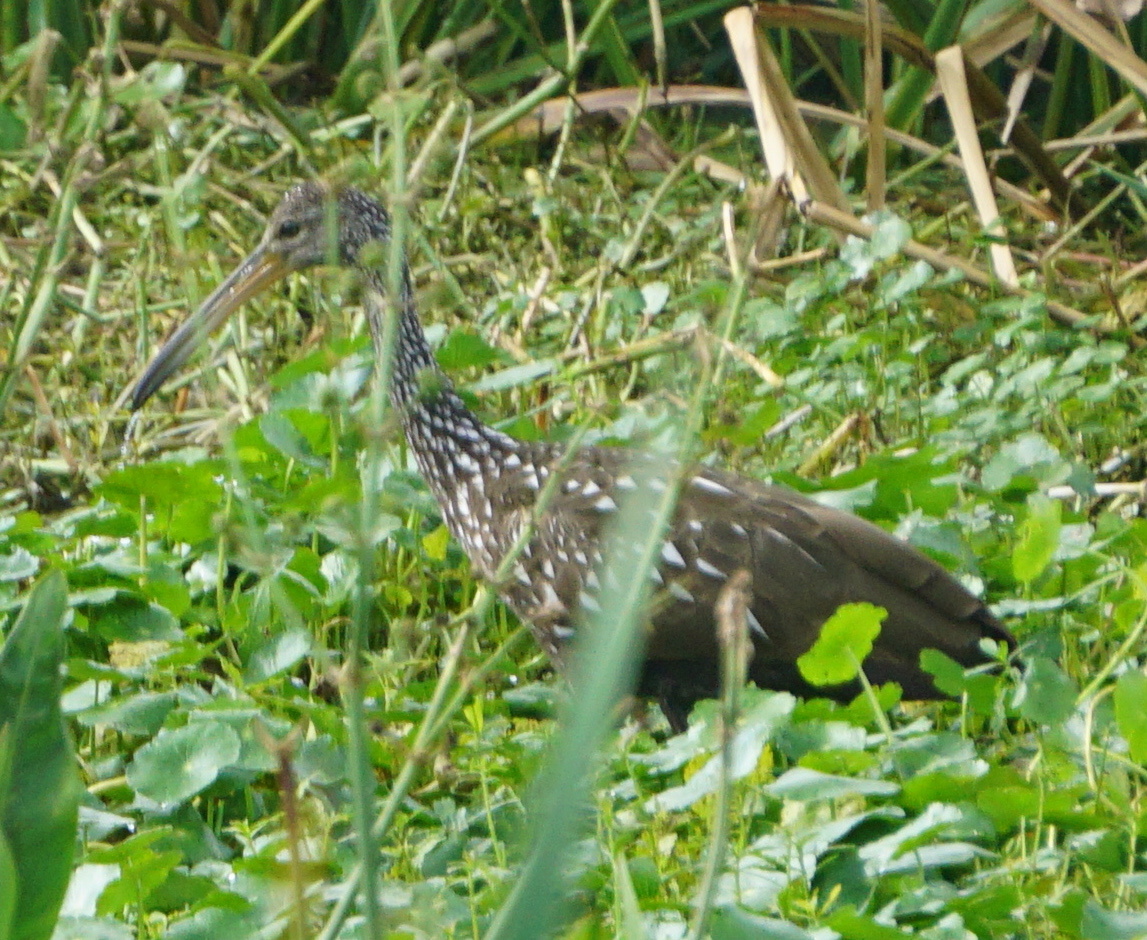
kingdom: Animalia
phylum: Chordata
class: Aves
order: Gruiformes
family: Aramidae
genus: Aramus
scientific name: Aramus guarauna
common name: Limpkin
